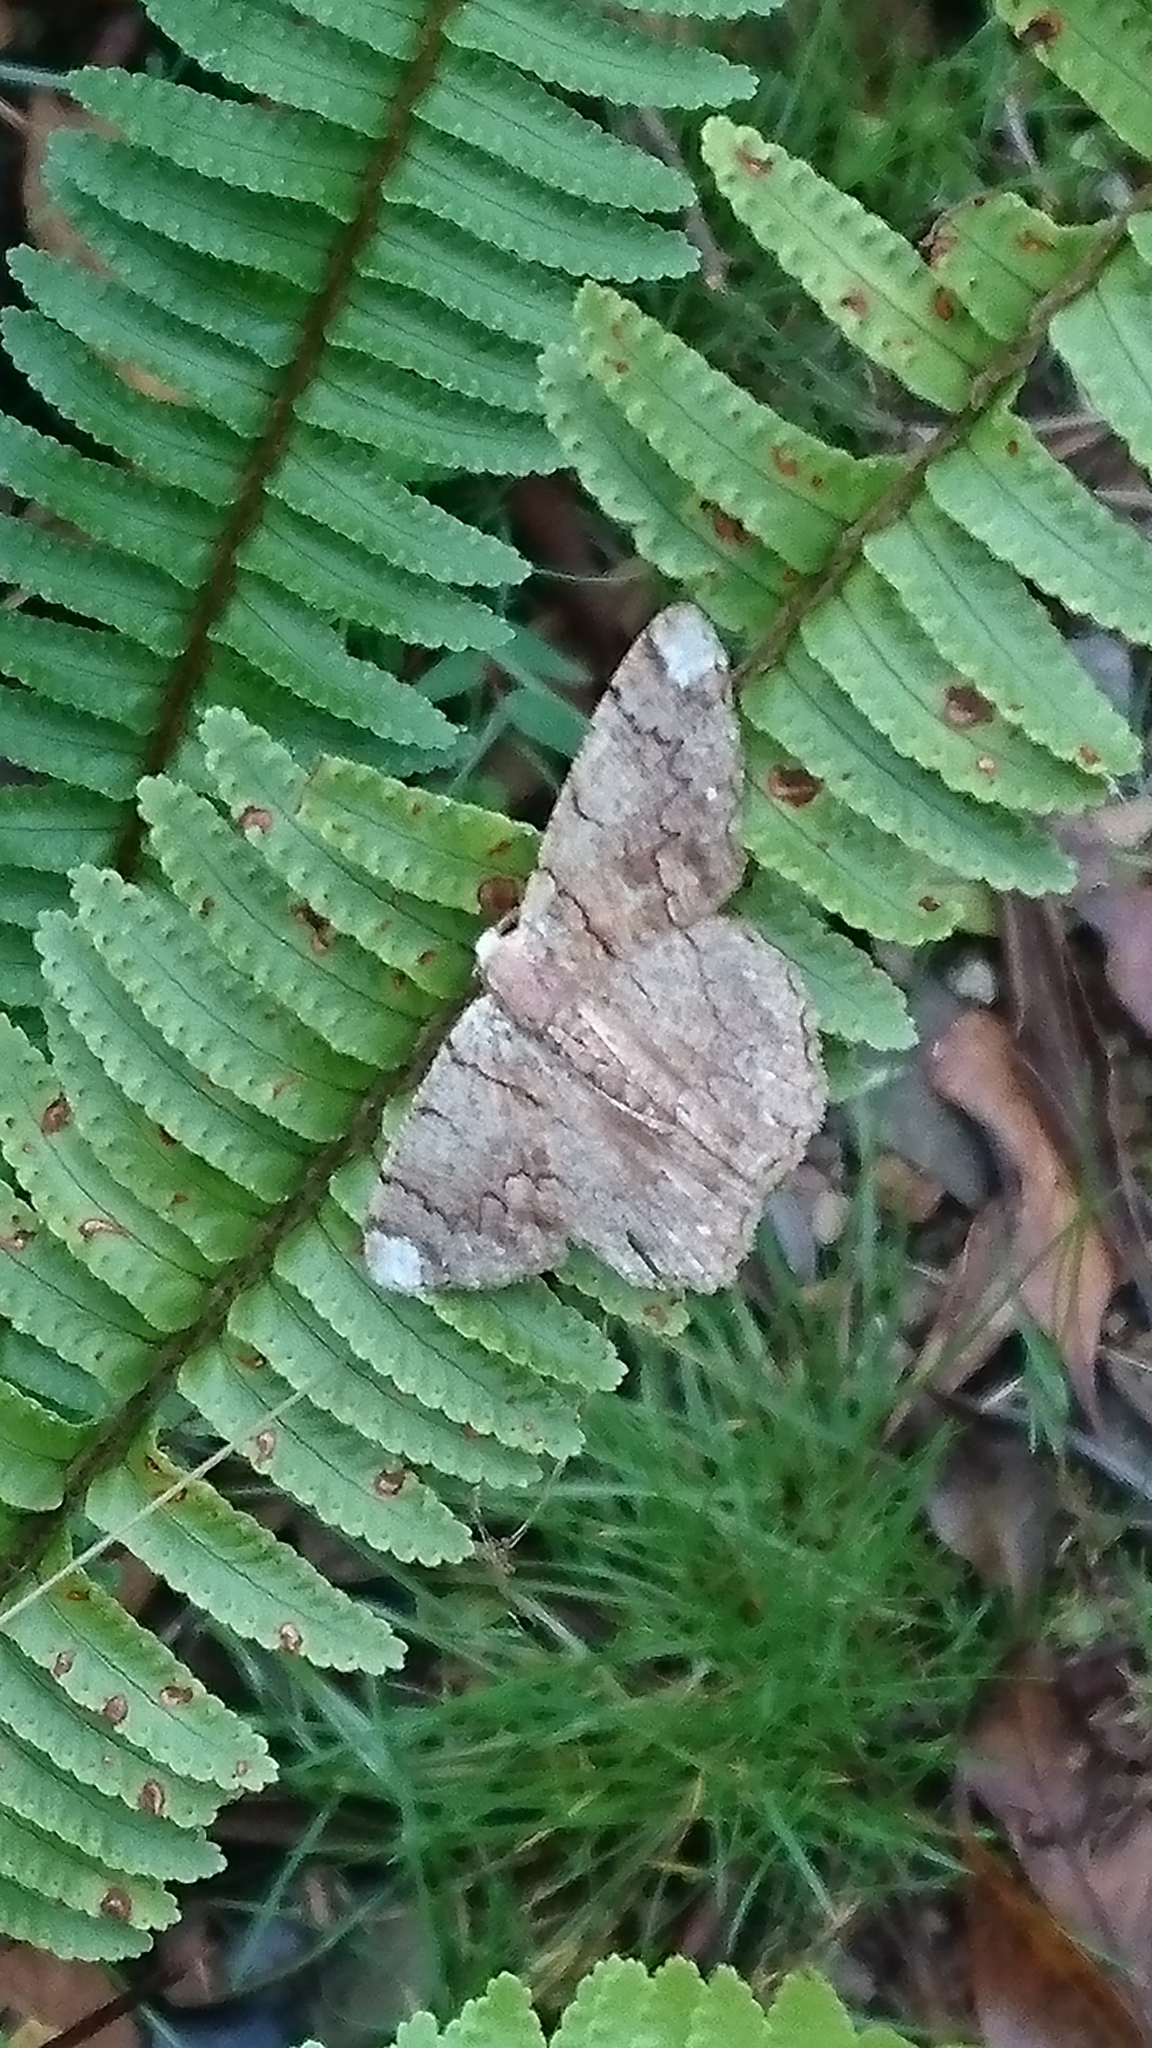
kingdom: Animalia
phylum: Arthropoda
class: Insecta
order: Lepidoptera
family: Geometridae
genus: Lophophelma
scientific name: Lophophelma vigens
